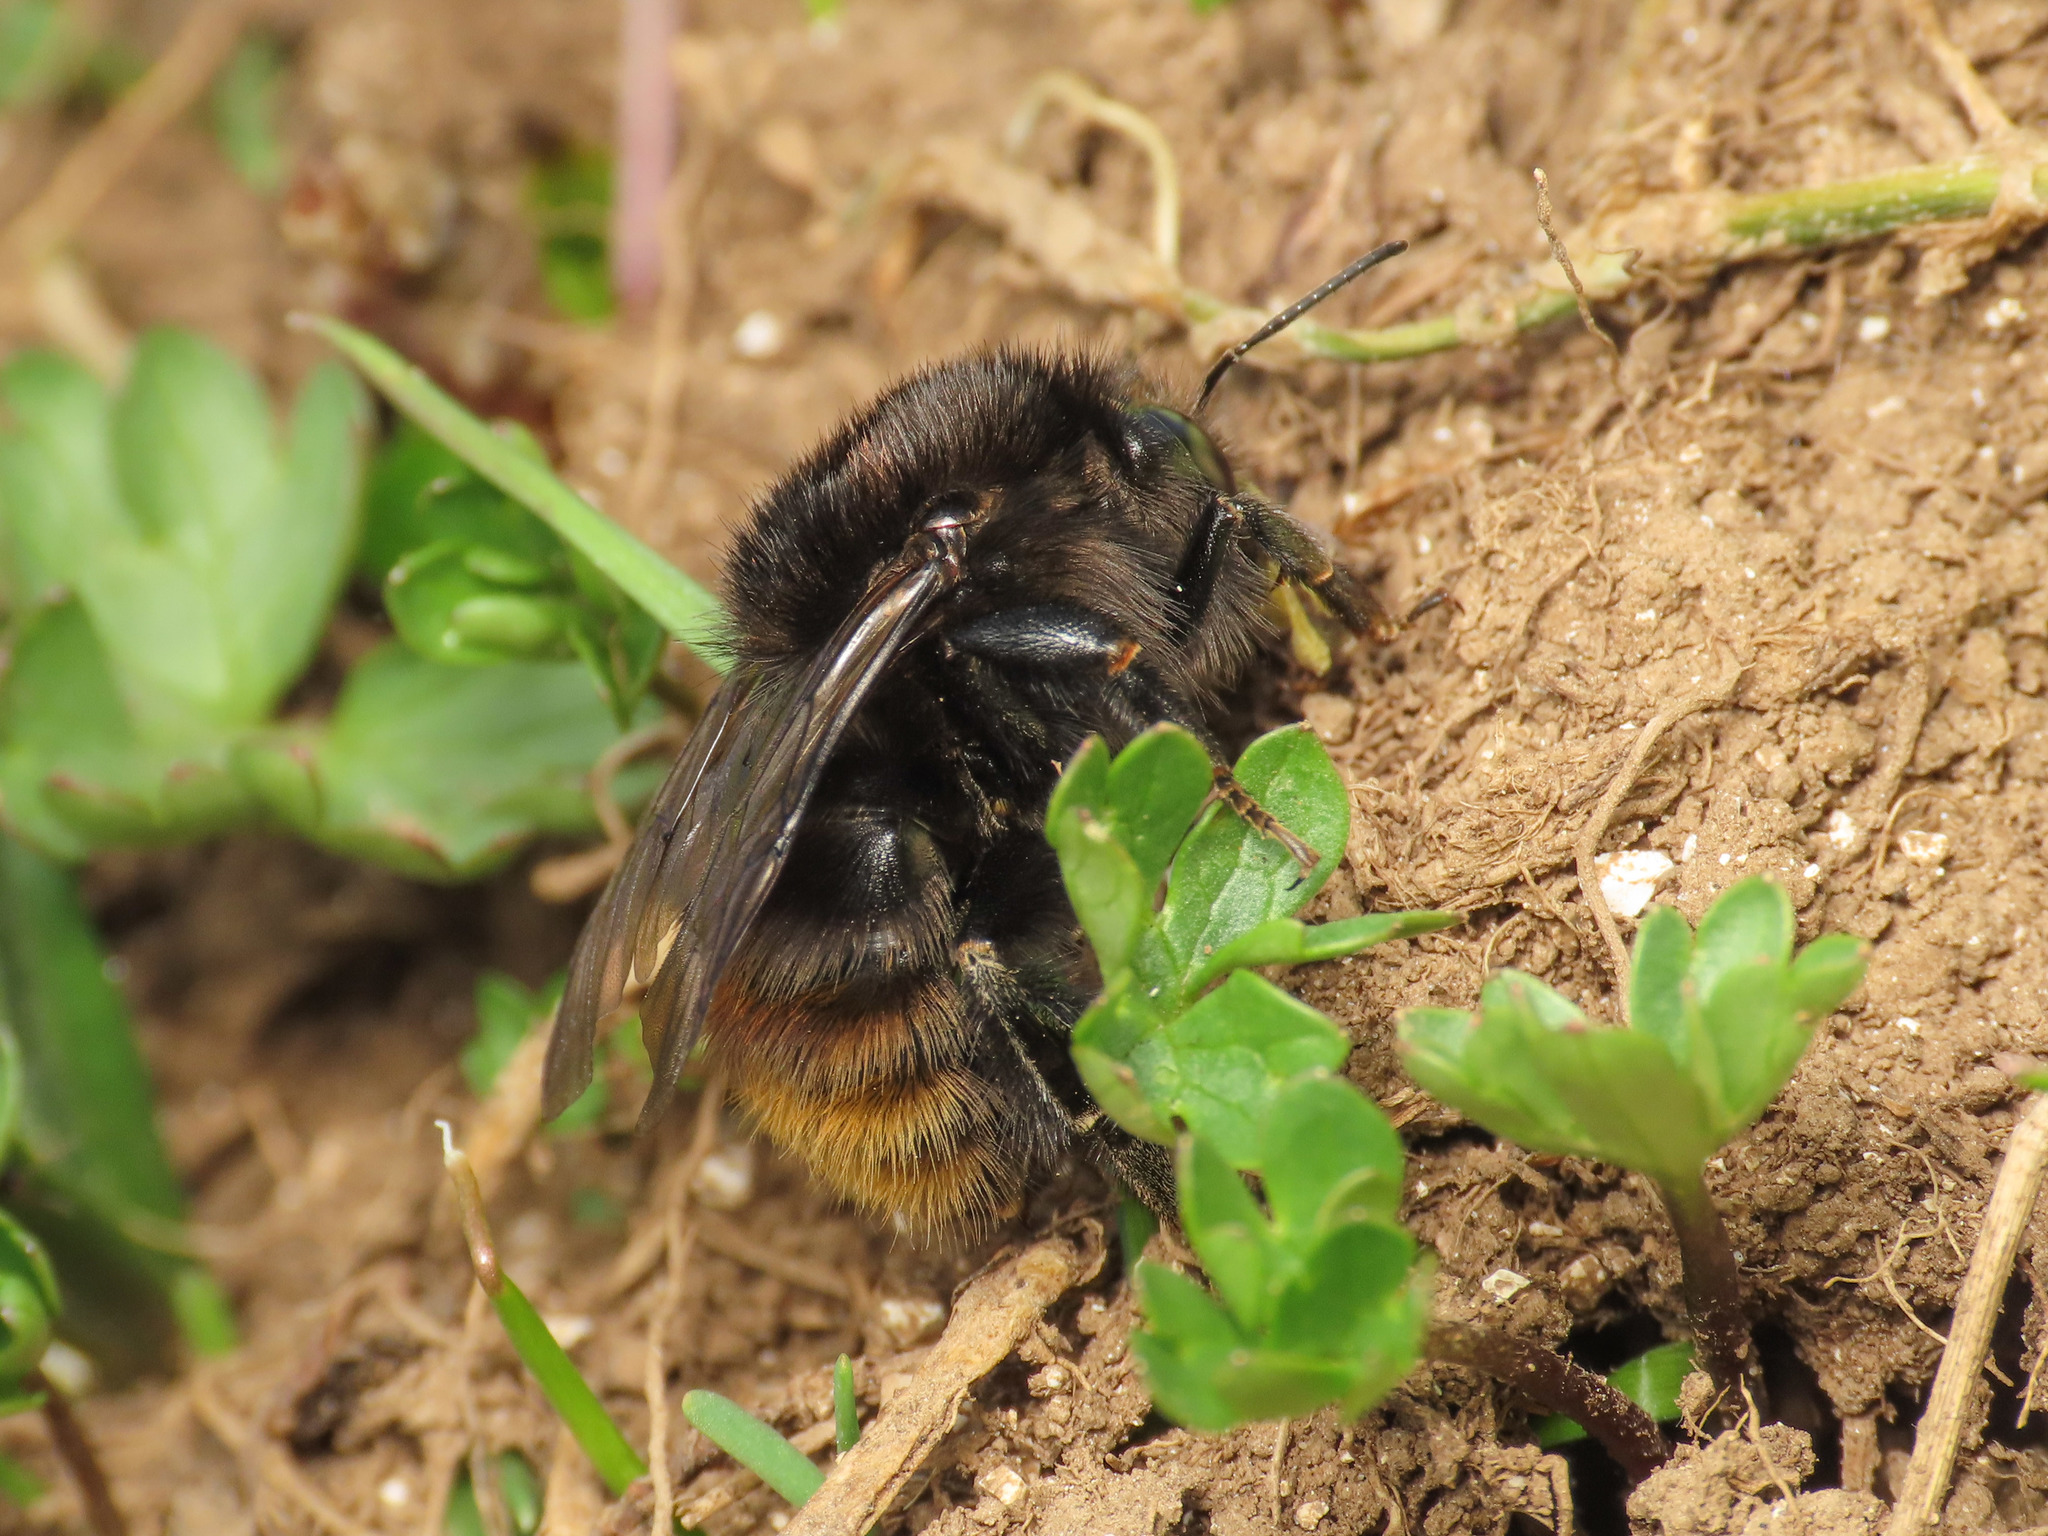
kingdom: Animalia
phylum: Arthropoda
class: Insecta
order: Hymenoptera
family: Apidae
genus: Bombus
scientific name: Bombus humilis
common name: Brown-banded carder-bee
